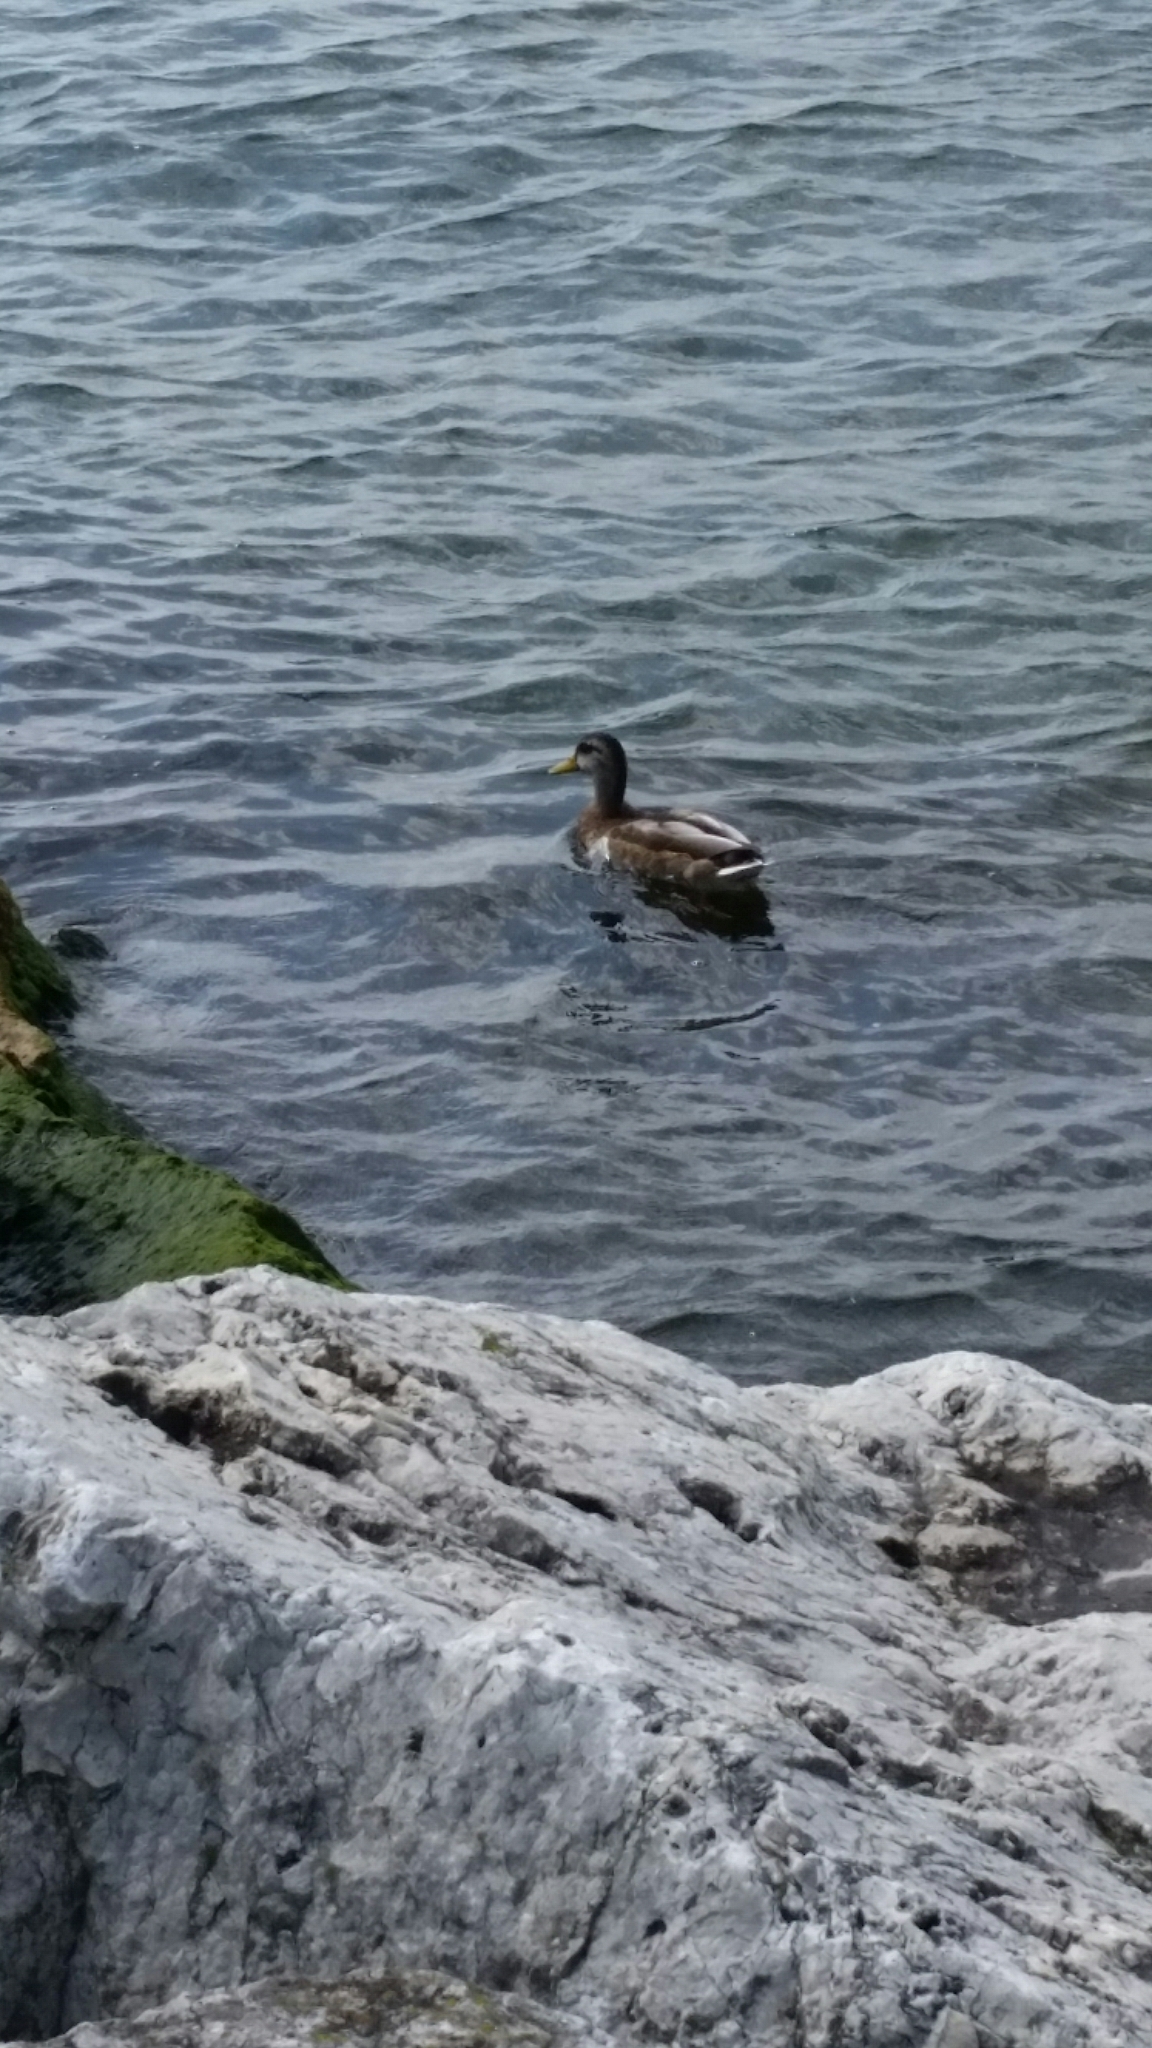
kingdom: Animalia
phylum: Chordata
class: Aves
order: Anseriformes
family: Anatidae
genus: Anas
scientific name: Anas platyrhynchos
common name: Mallard
